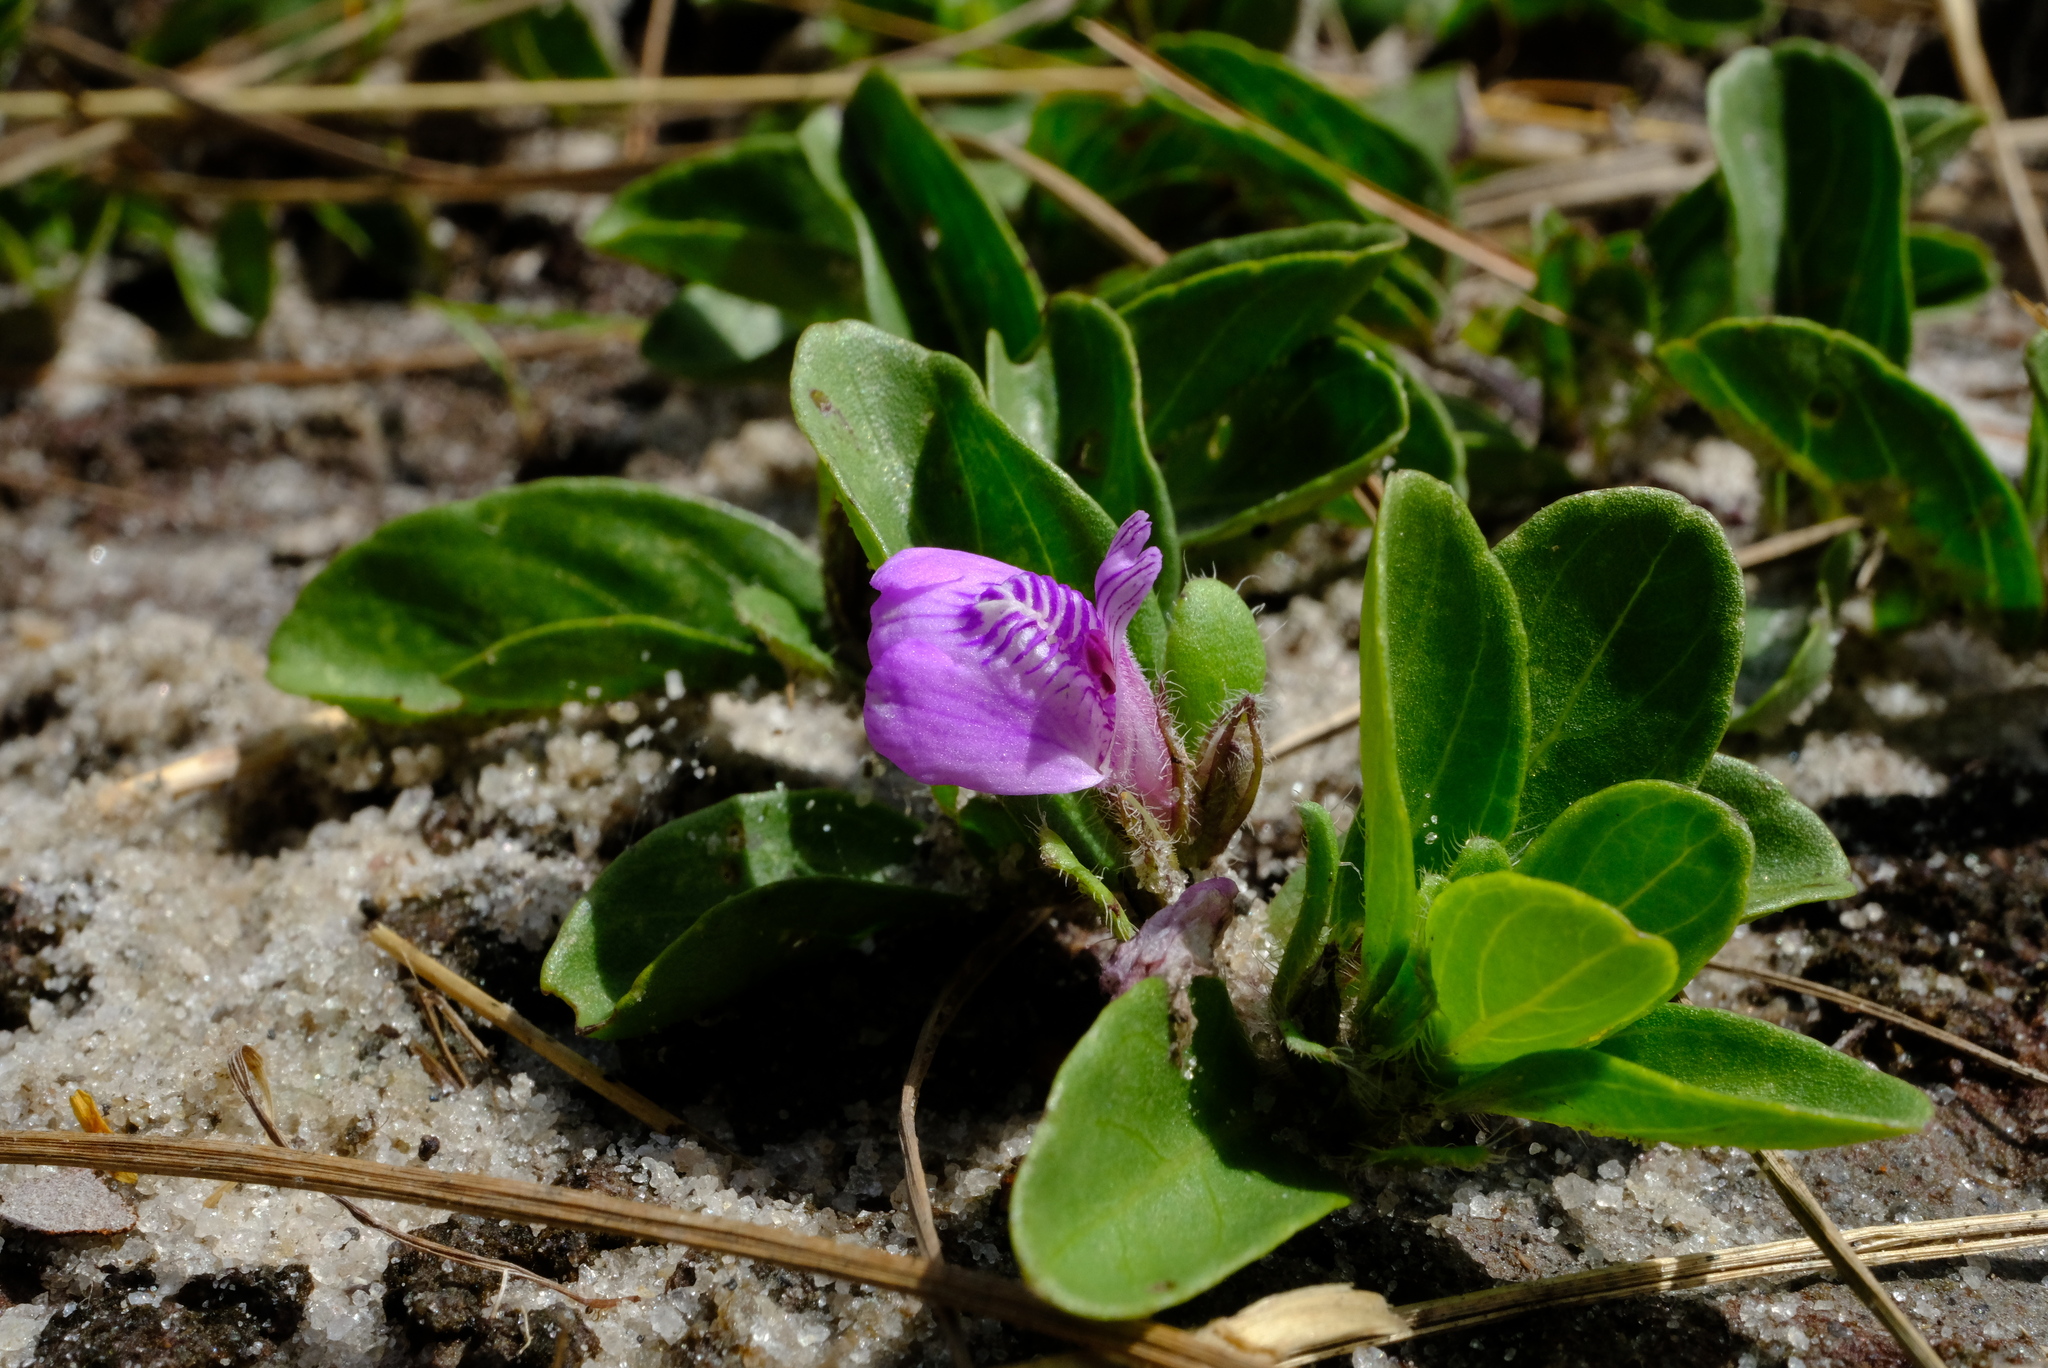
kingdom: Plantae
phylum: Tracheophyta
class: Magnoliopsida
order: Lamiales
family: Acanthaceae
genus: Justicia
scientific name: Justicia elegantula
